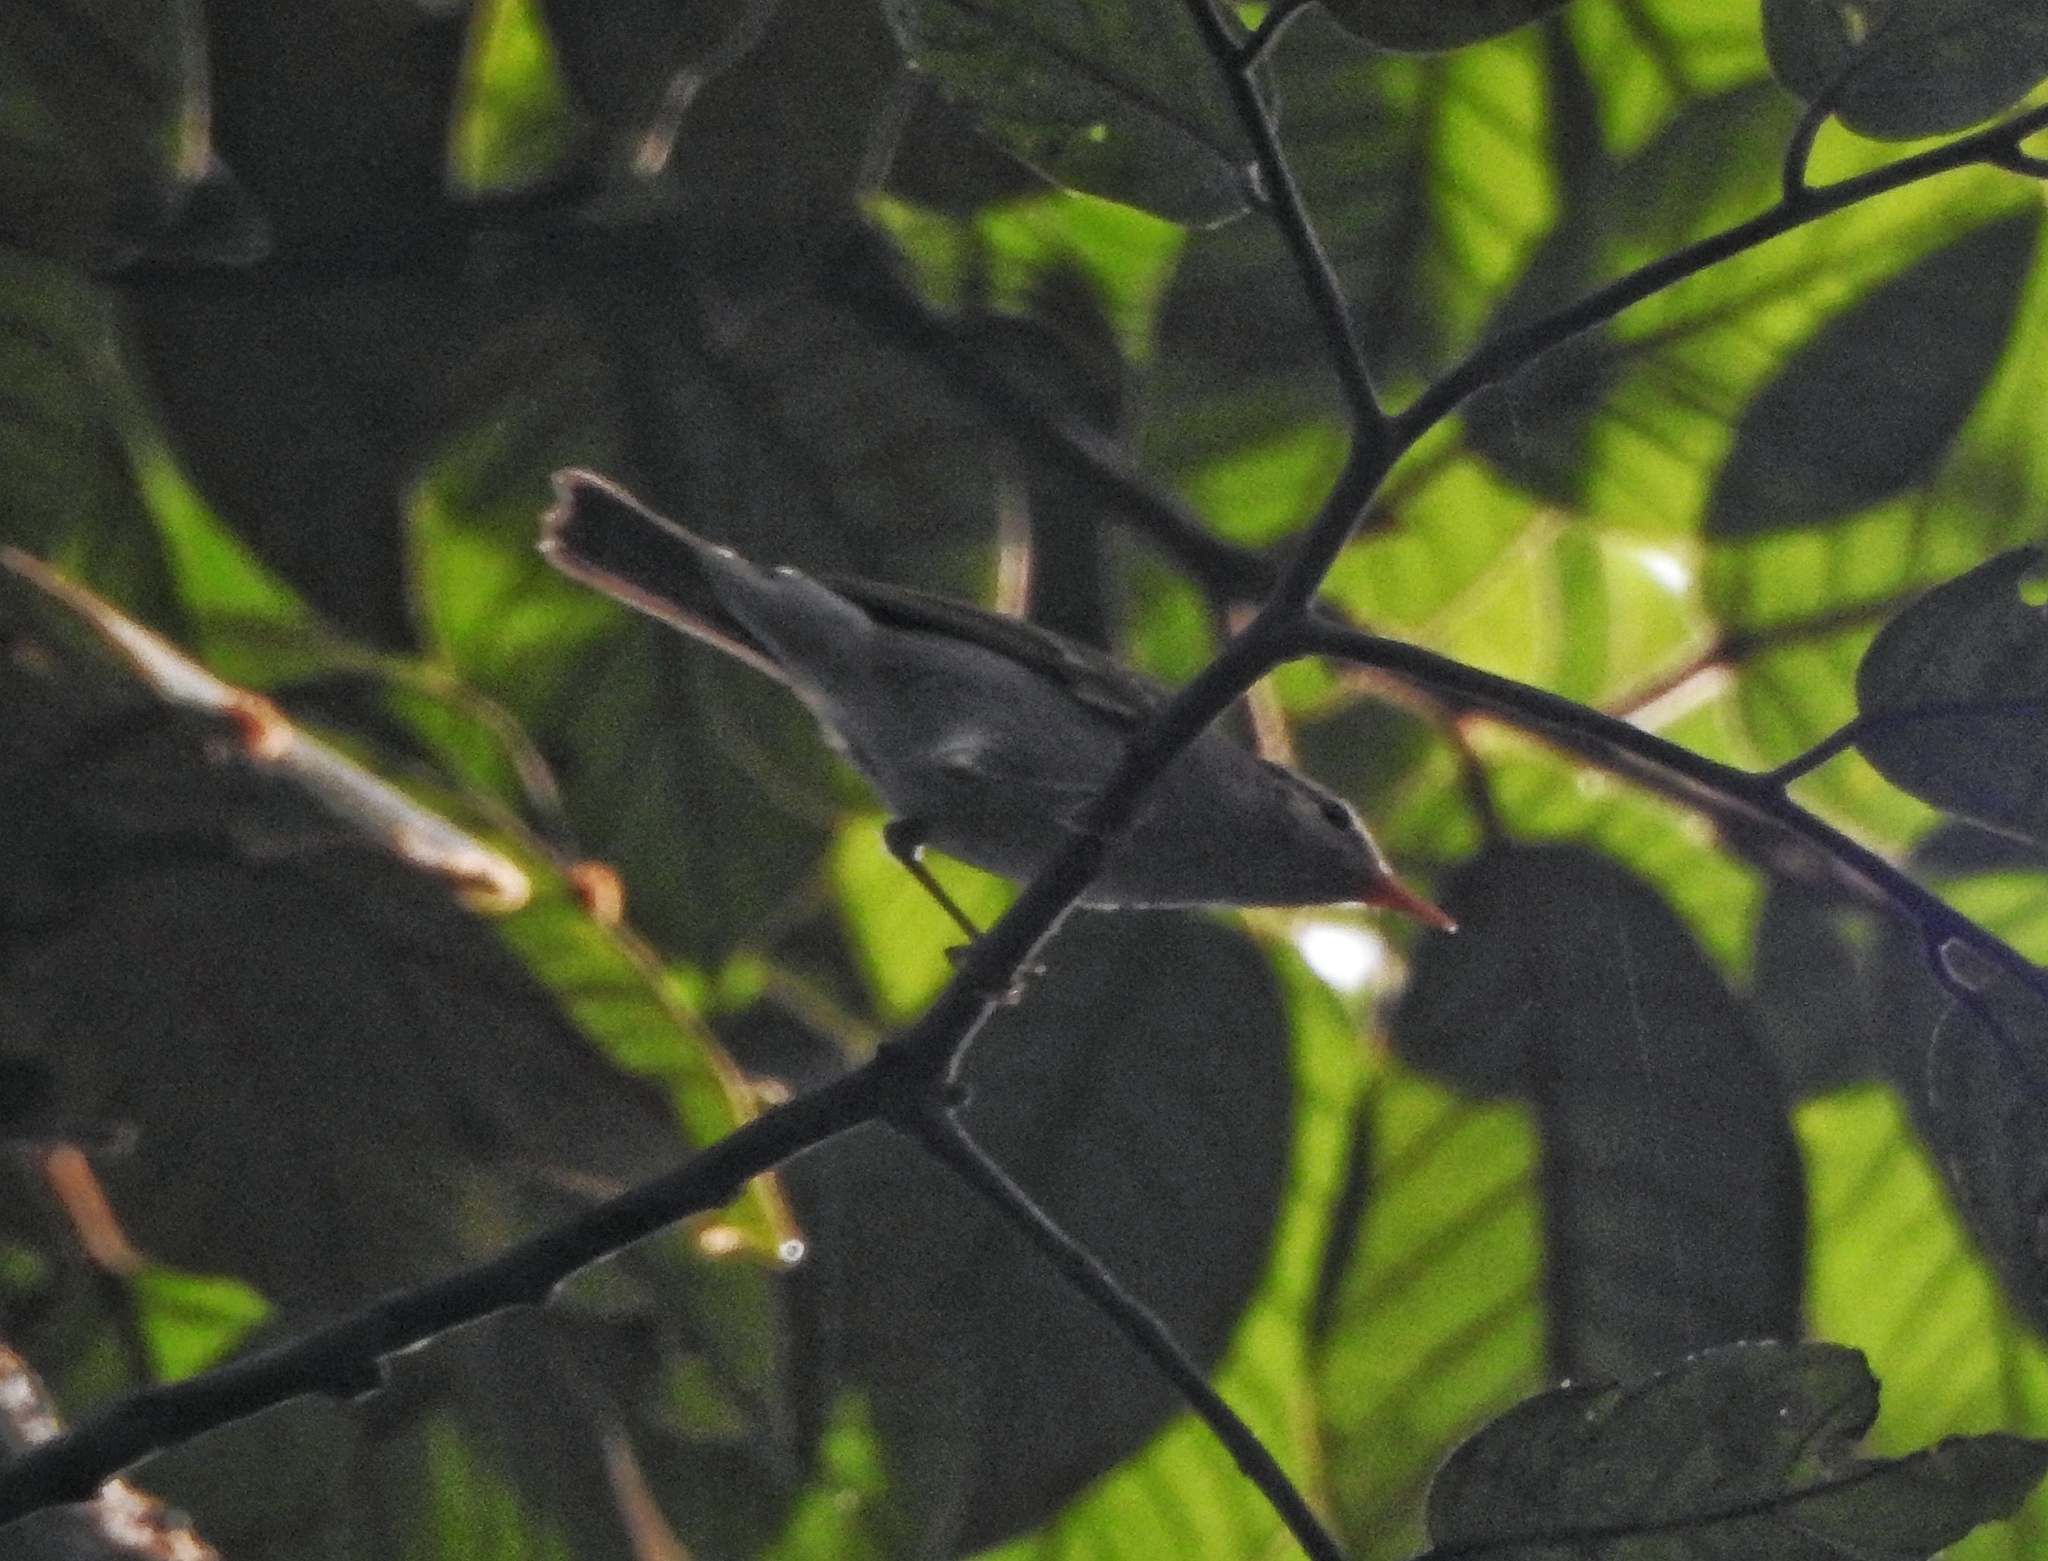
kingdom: Animalia
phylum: Chordata
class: Aves
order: Passeriformes
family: Phylloscopidae
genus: Phylloscopus
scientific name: Phylloscopus trochiloides
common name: Greenish warbler
